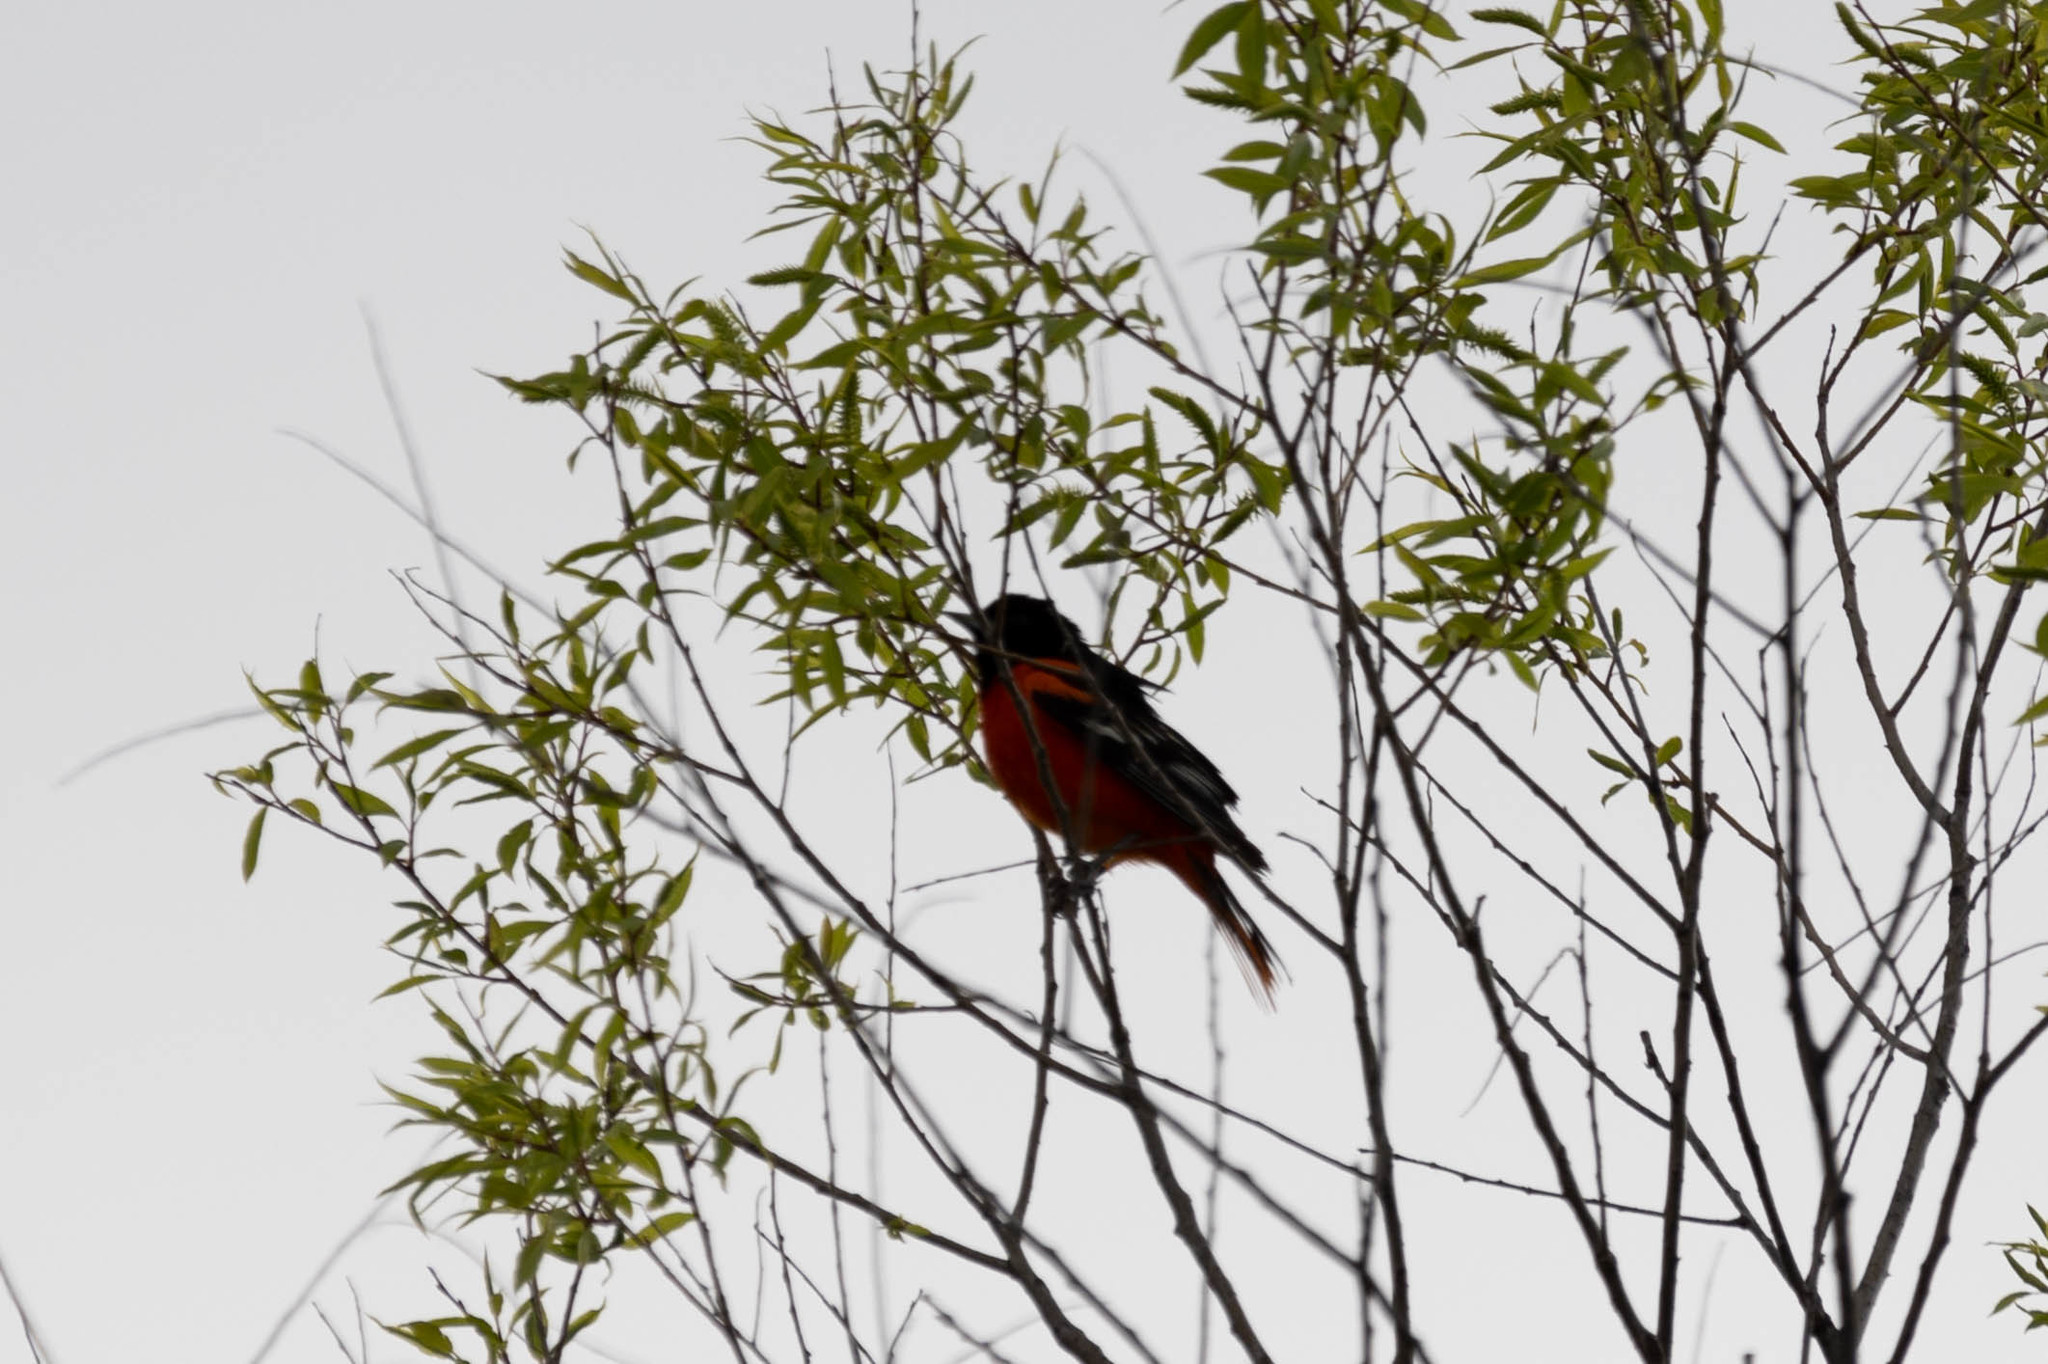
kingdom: Animalia
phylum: Chordata
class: Aves
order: Passeriformes
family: Icteridae
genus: Icterus
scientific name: Icterus galbula
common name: Baltimore oriole
